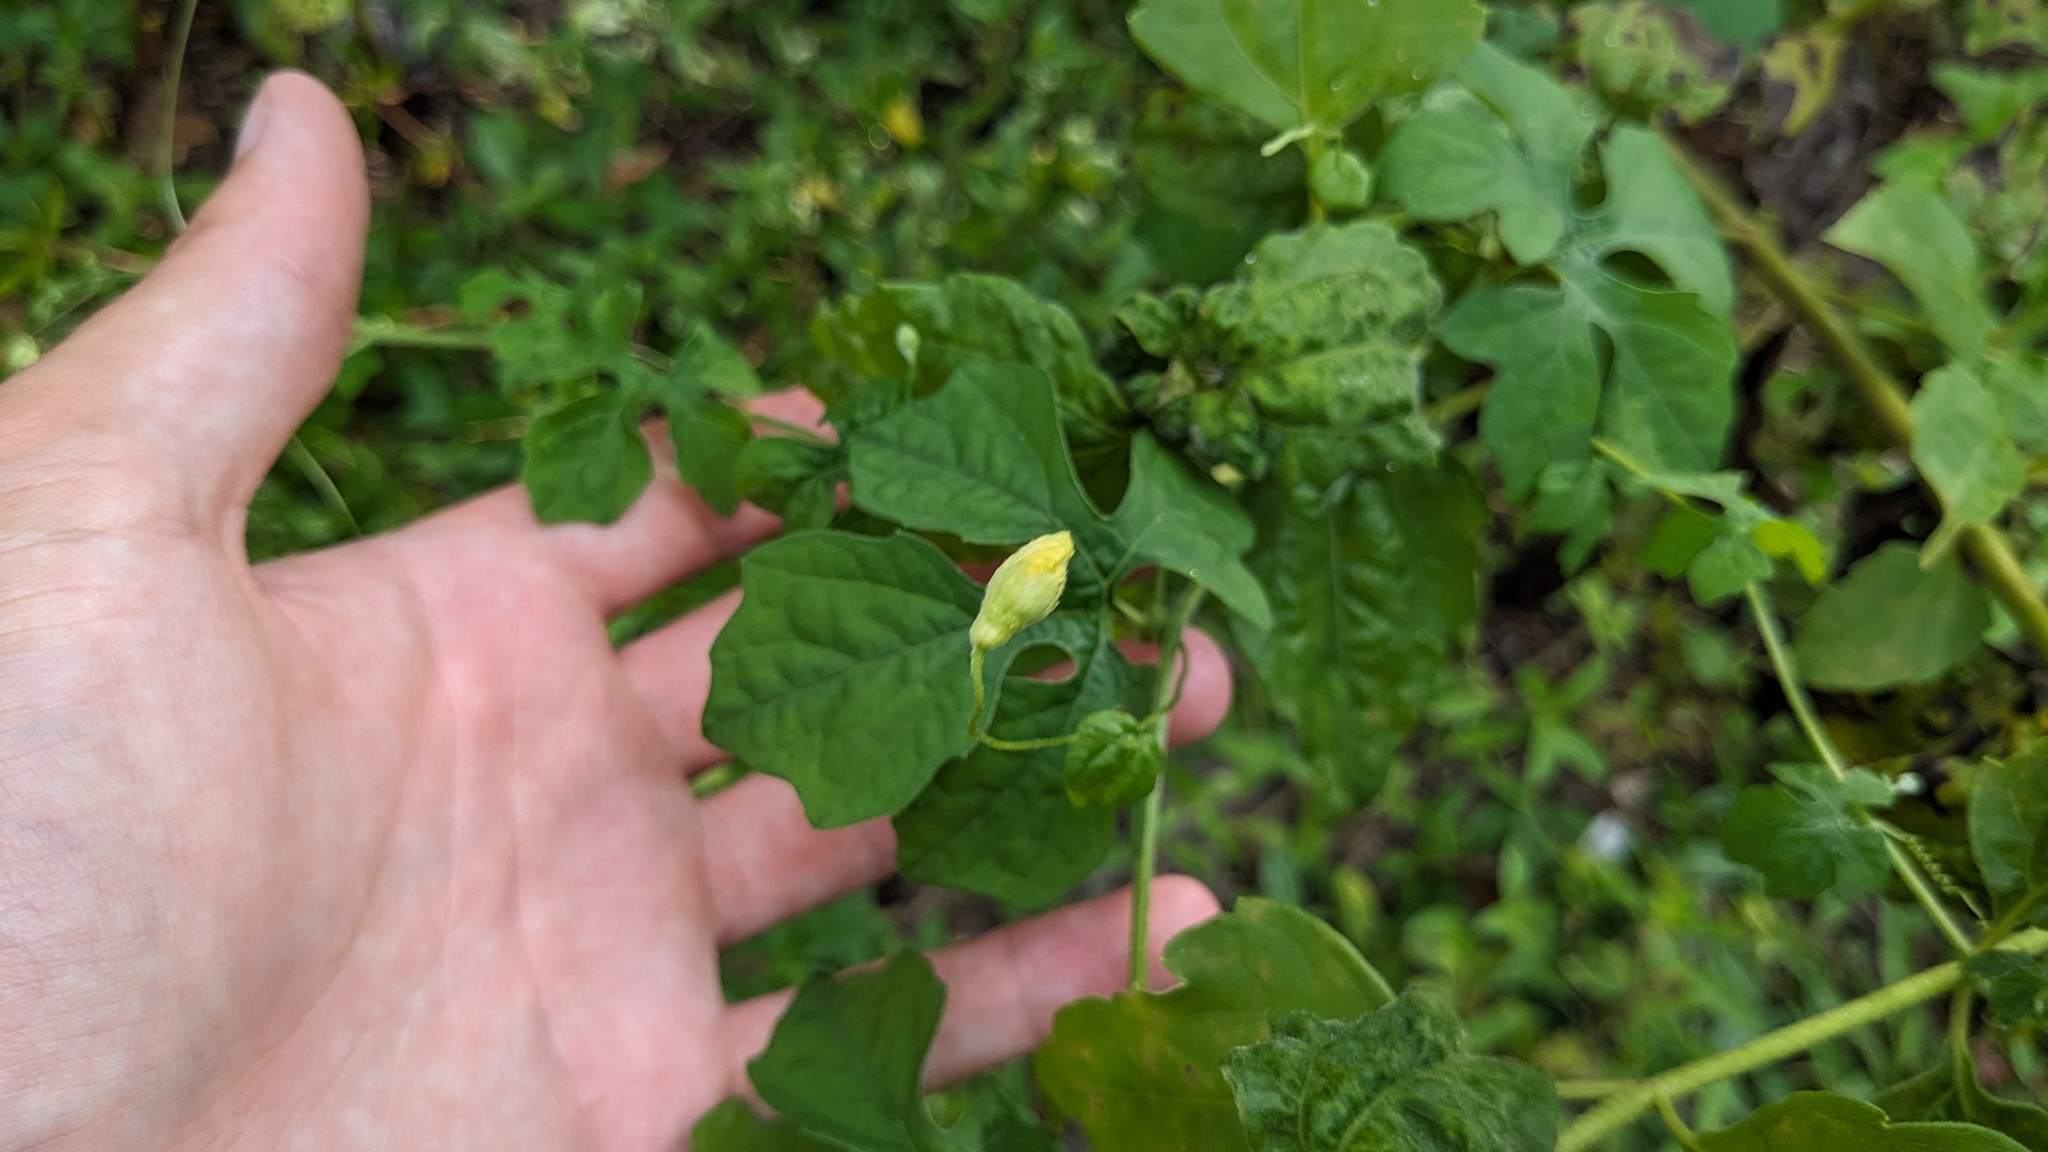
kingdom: Plantae
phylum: Tracheophyta
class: Magnoliopsida
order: Cucurbitales
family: Cucurbitaceae
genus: Momordica
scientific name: Momordica charantia
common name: Balsampear
